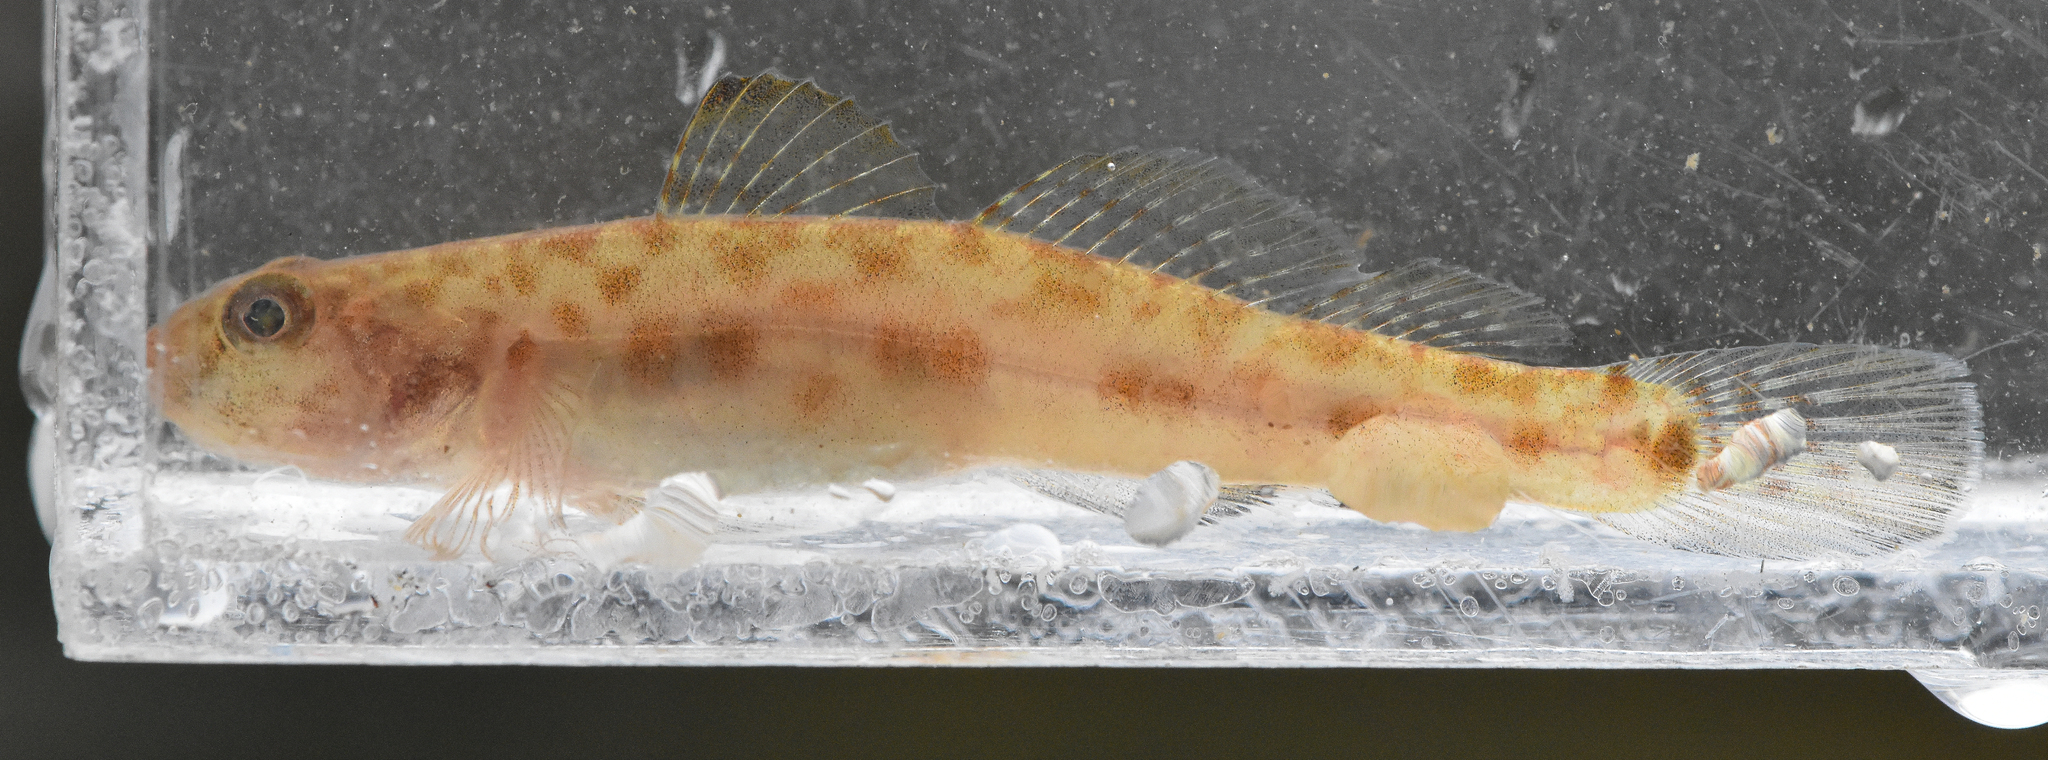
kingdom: Animalia
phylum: Chordata
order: Perciformes
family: Gobiidae
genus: Lepidogobius
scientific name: Lepidogobius lepidus
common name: Bay goby
